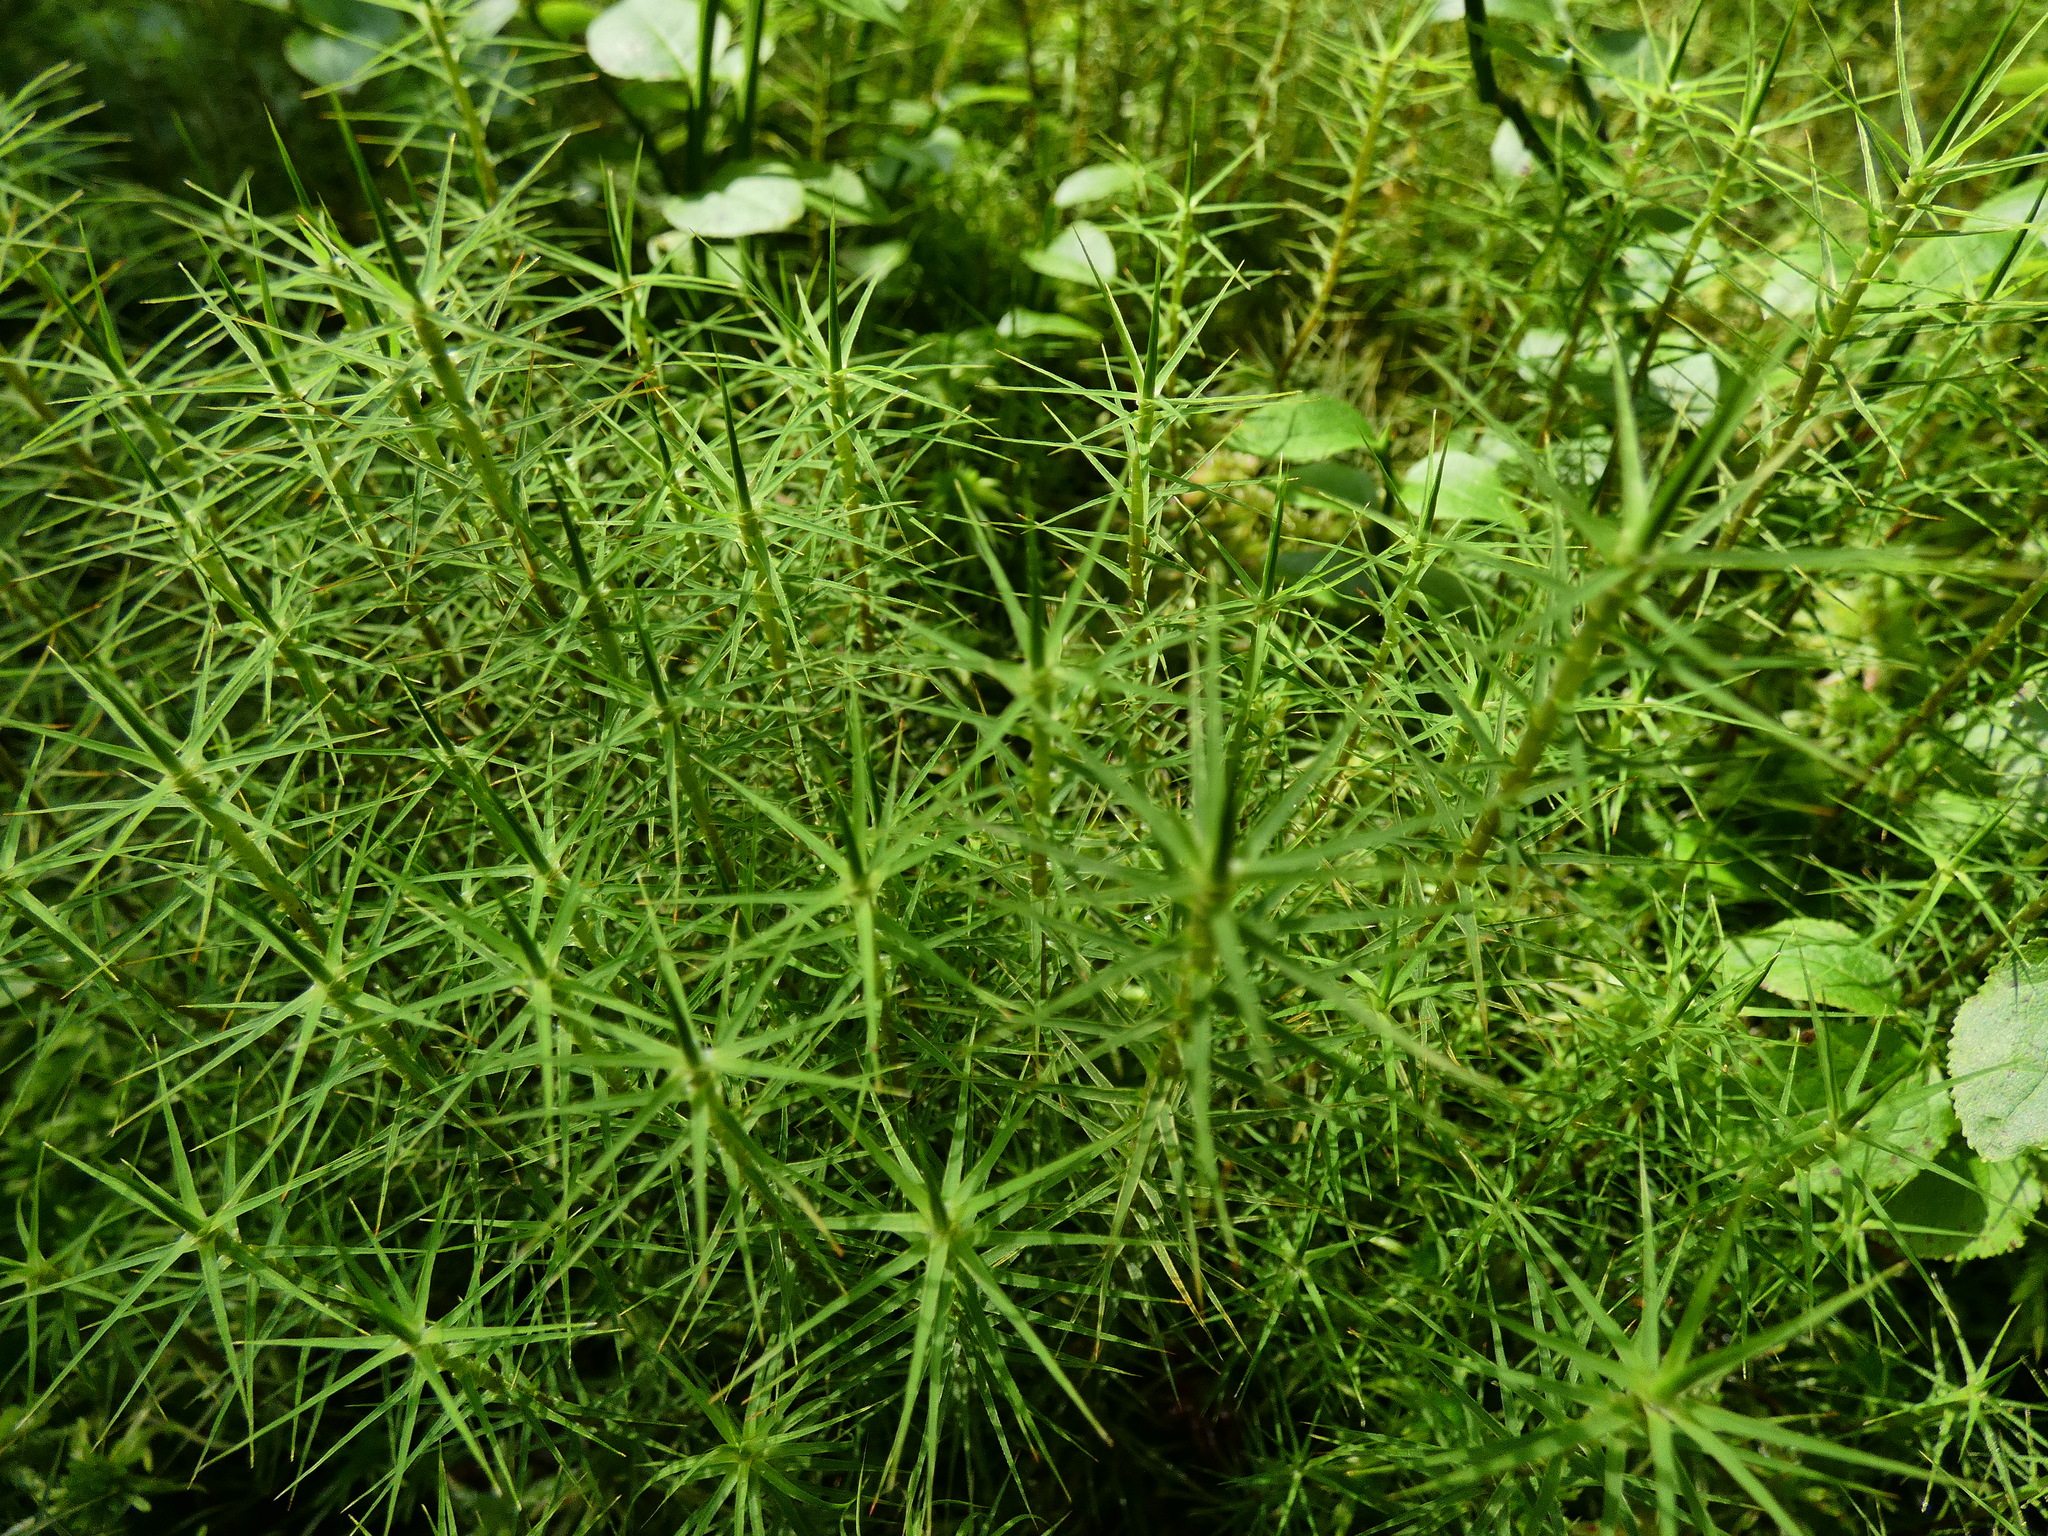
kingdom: Plantae
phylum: Bryophyta
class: Polytrichopsida
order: Polytrichales
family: Polytrichaceae
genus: Polytrichum
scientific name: Polytrichum commune
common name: Common haircap
